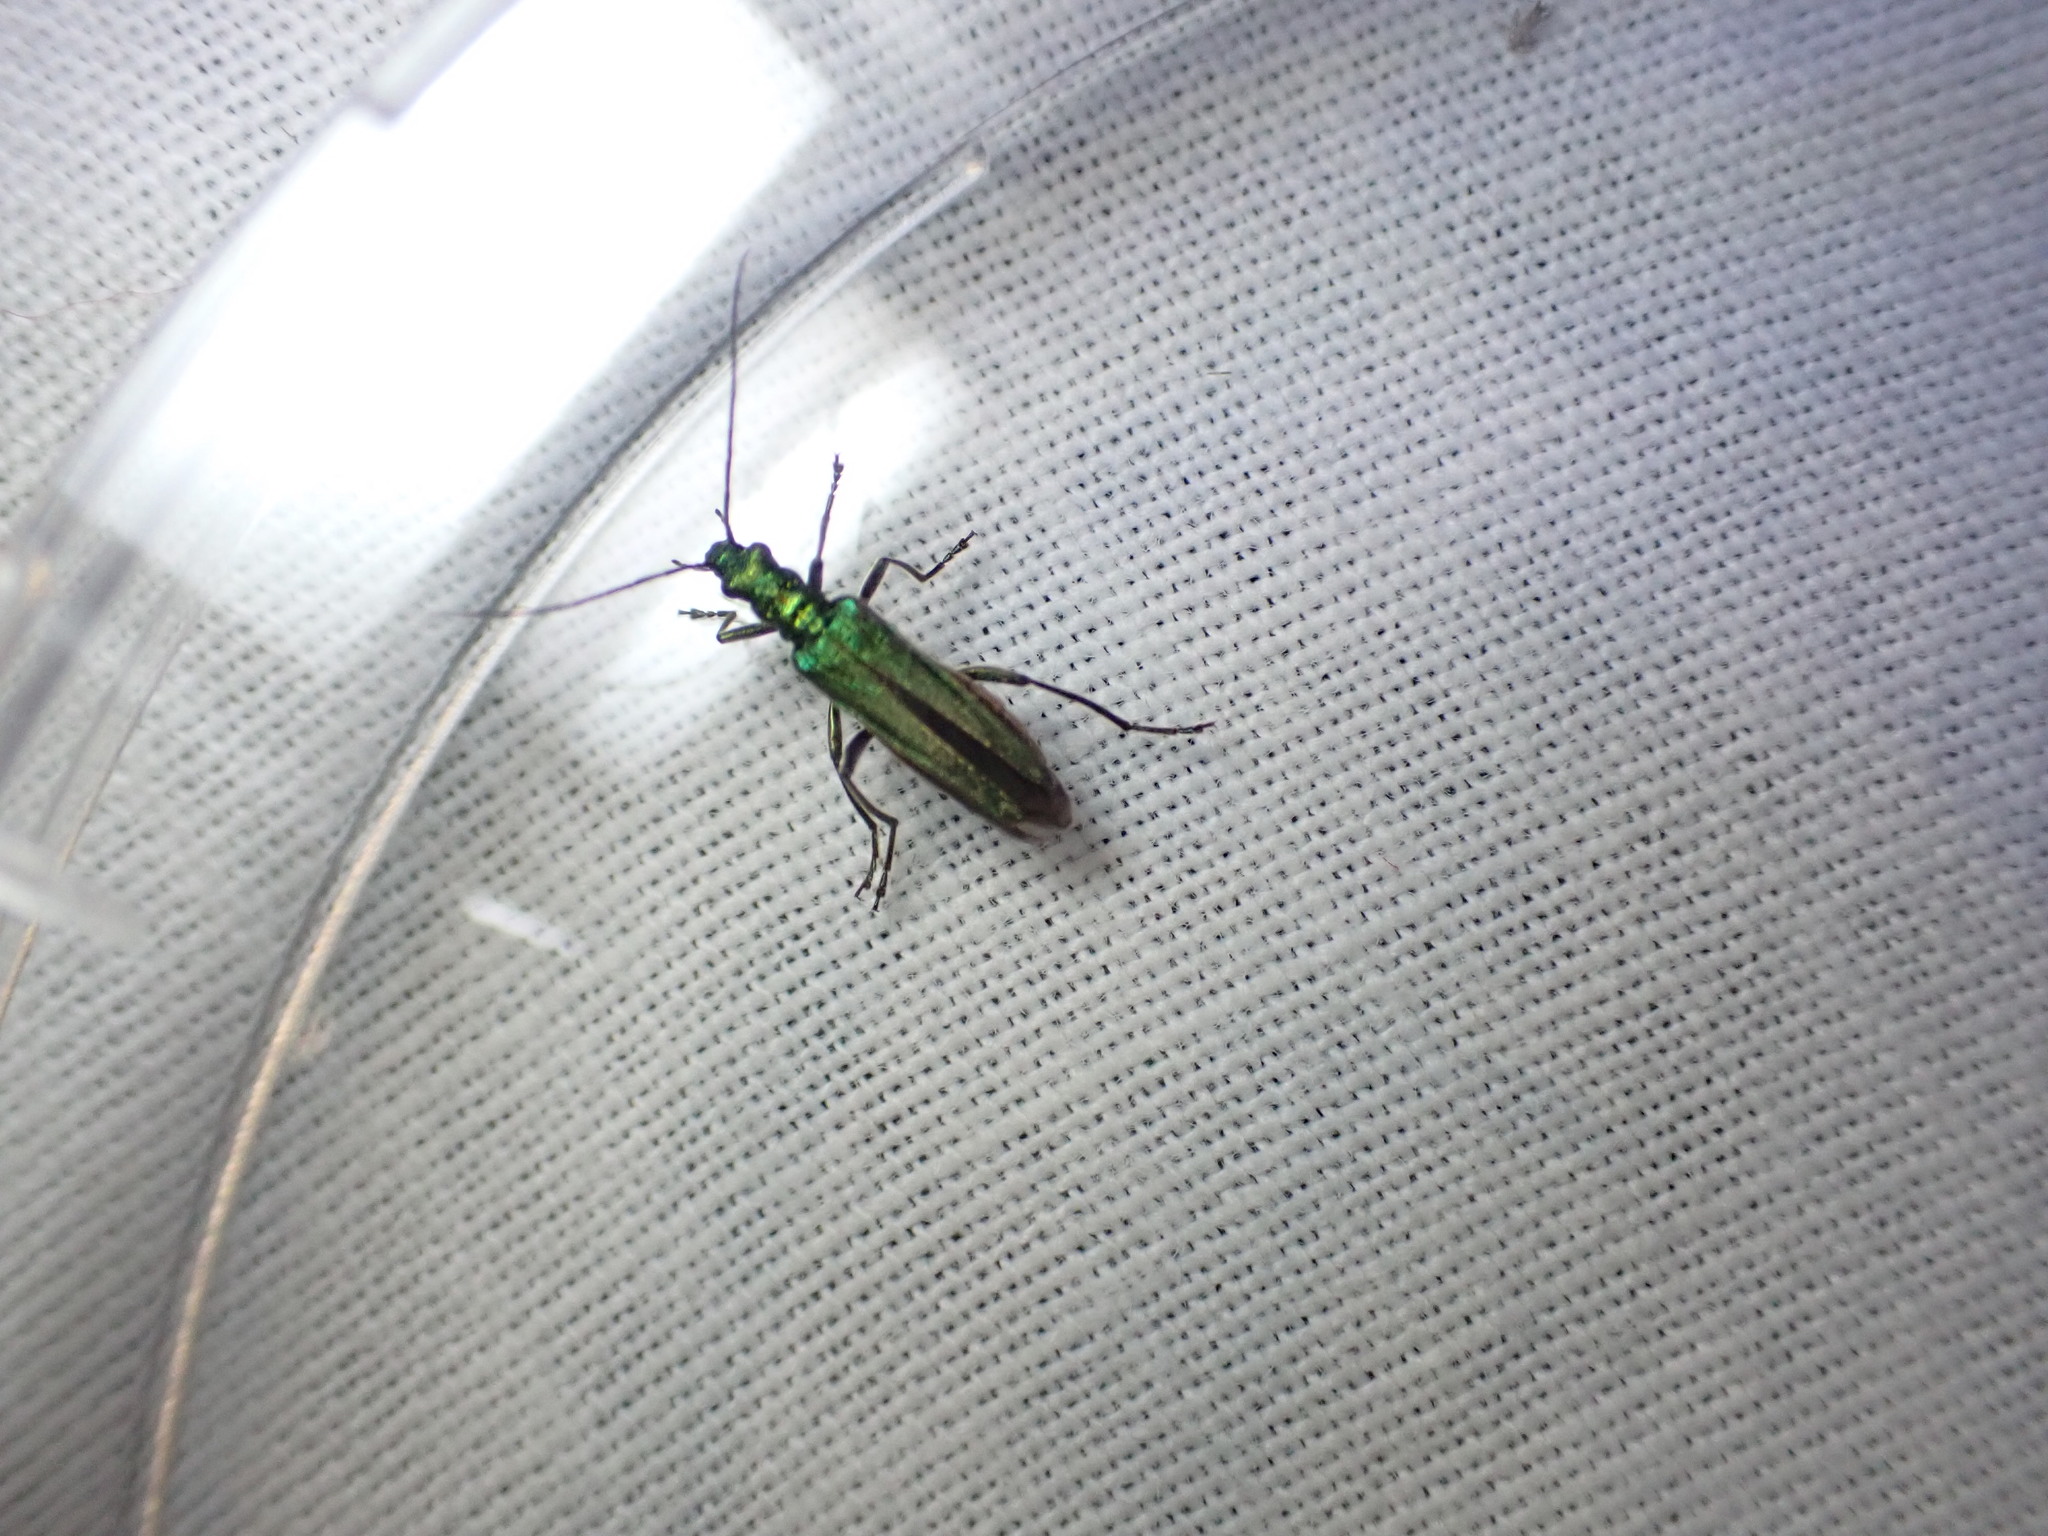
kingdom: Animalia
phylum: Arthropoda
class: Insecta
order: Coleoptera
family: Oedemeridae
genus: Oedemera
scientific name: Oedemera nobilis
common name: Swollen-thighed beetle
